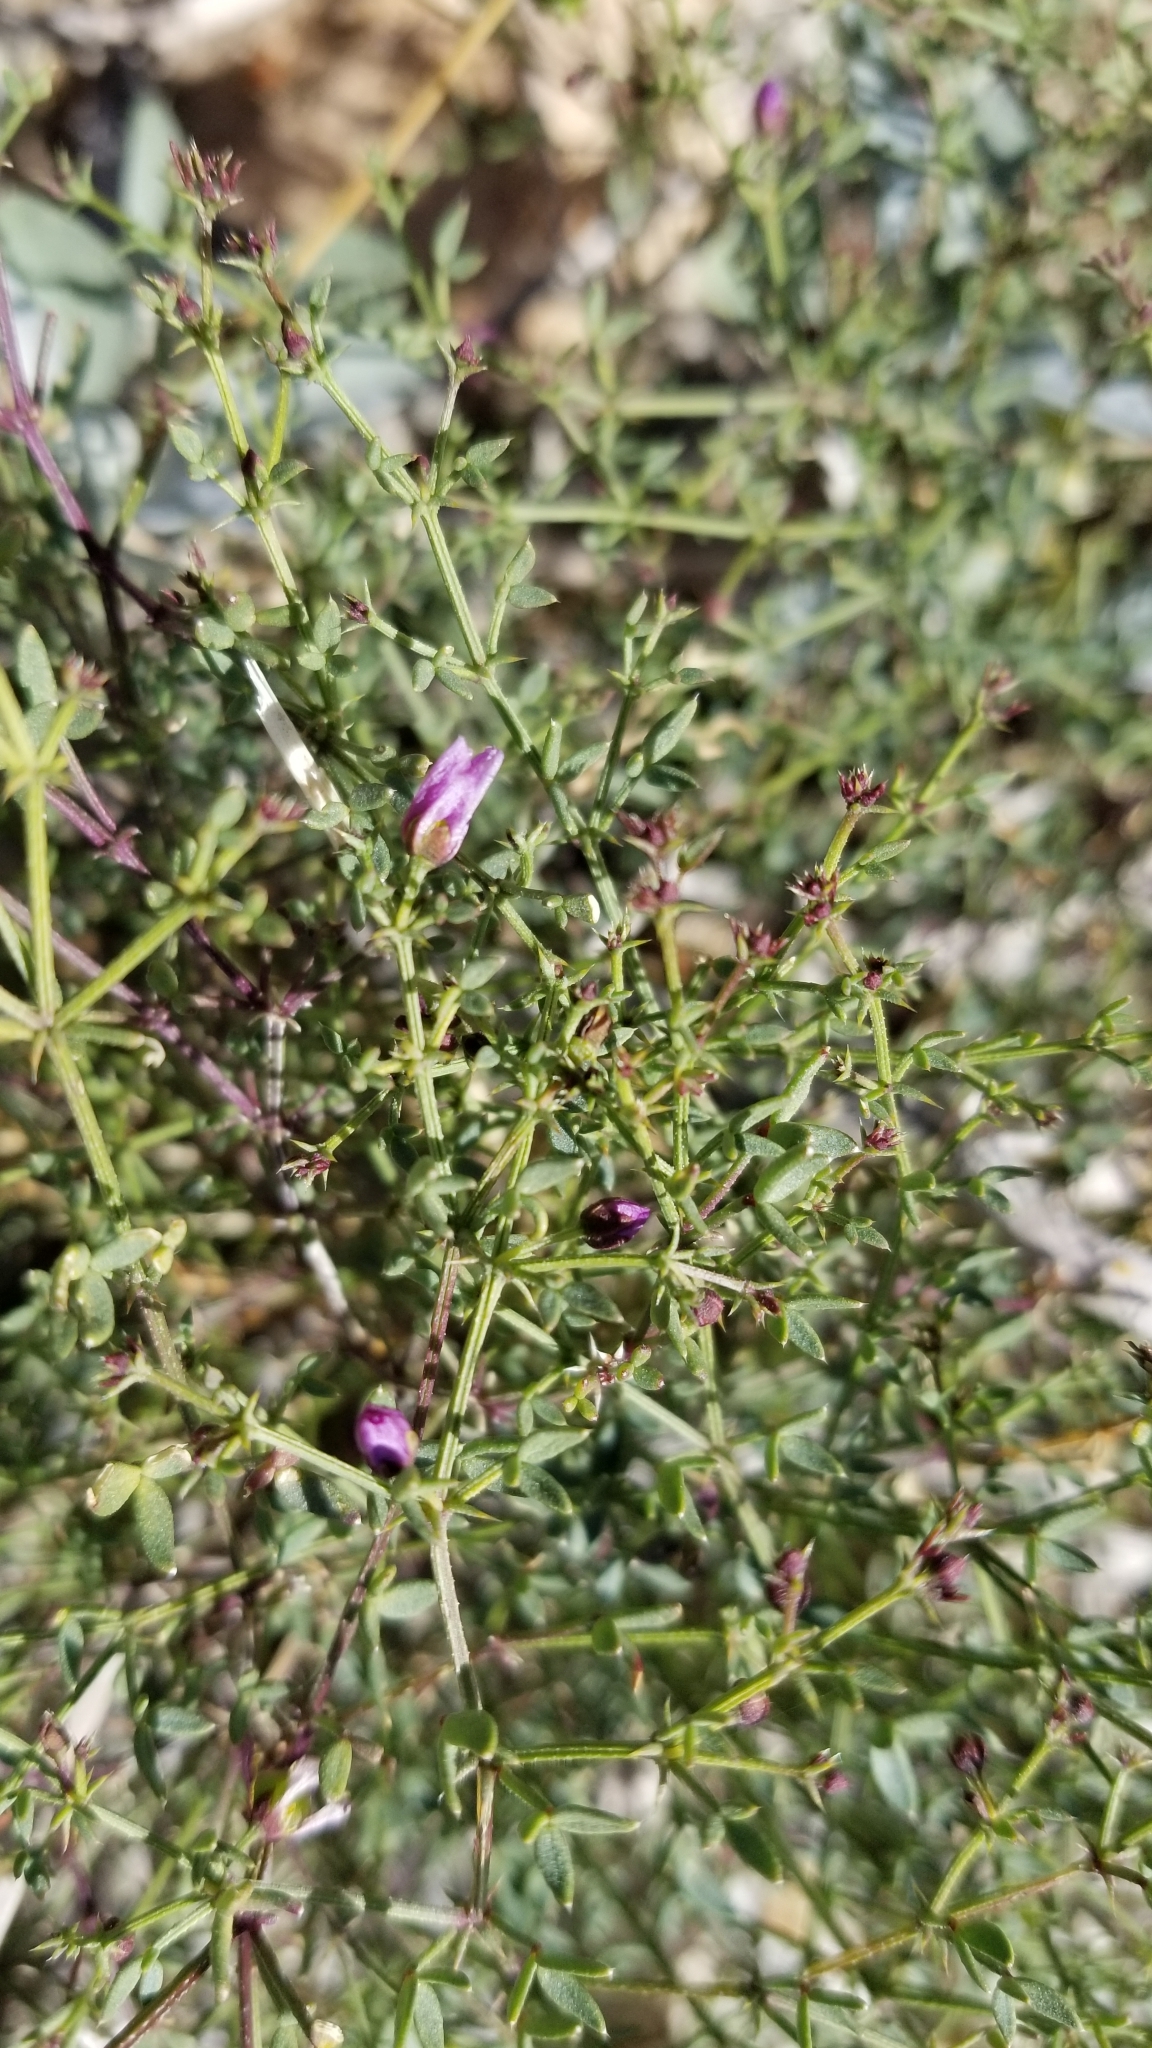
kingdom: Plantae
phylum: Tracheophyta
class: Magnoliopsida
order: Zygophyllales
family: Zygophyllaceae
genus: Fagonia
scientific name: Fagonia laevis
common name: California fagonbush
